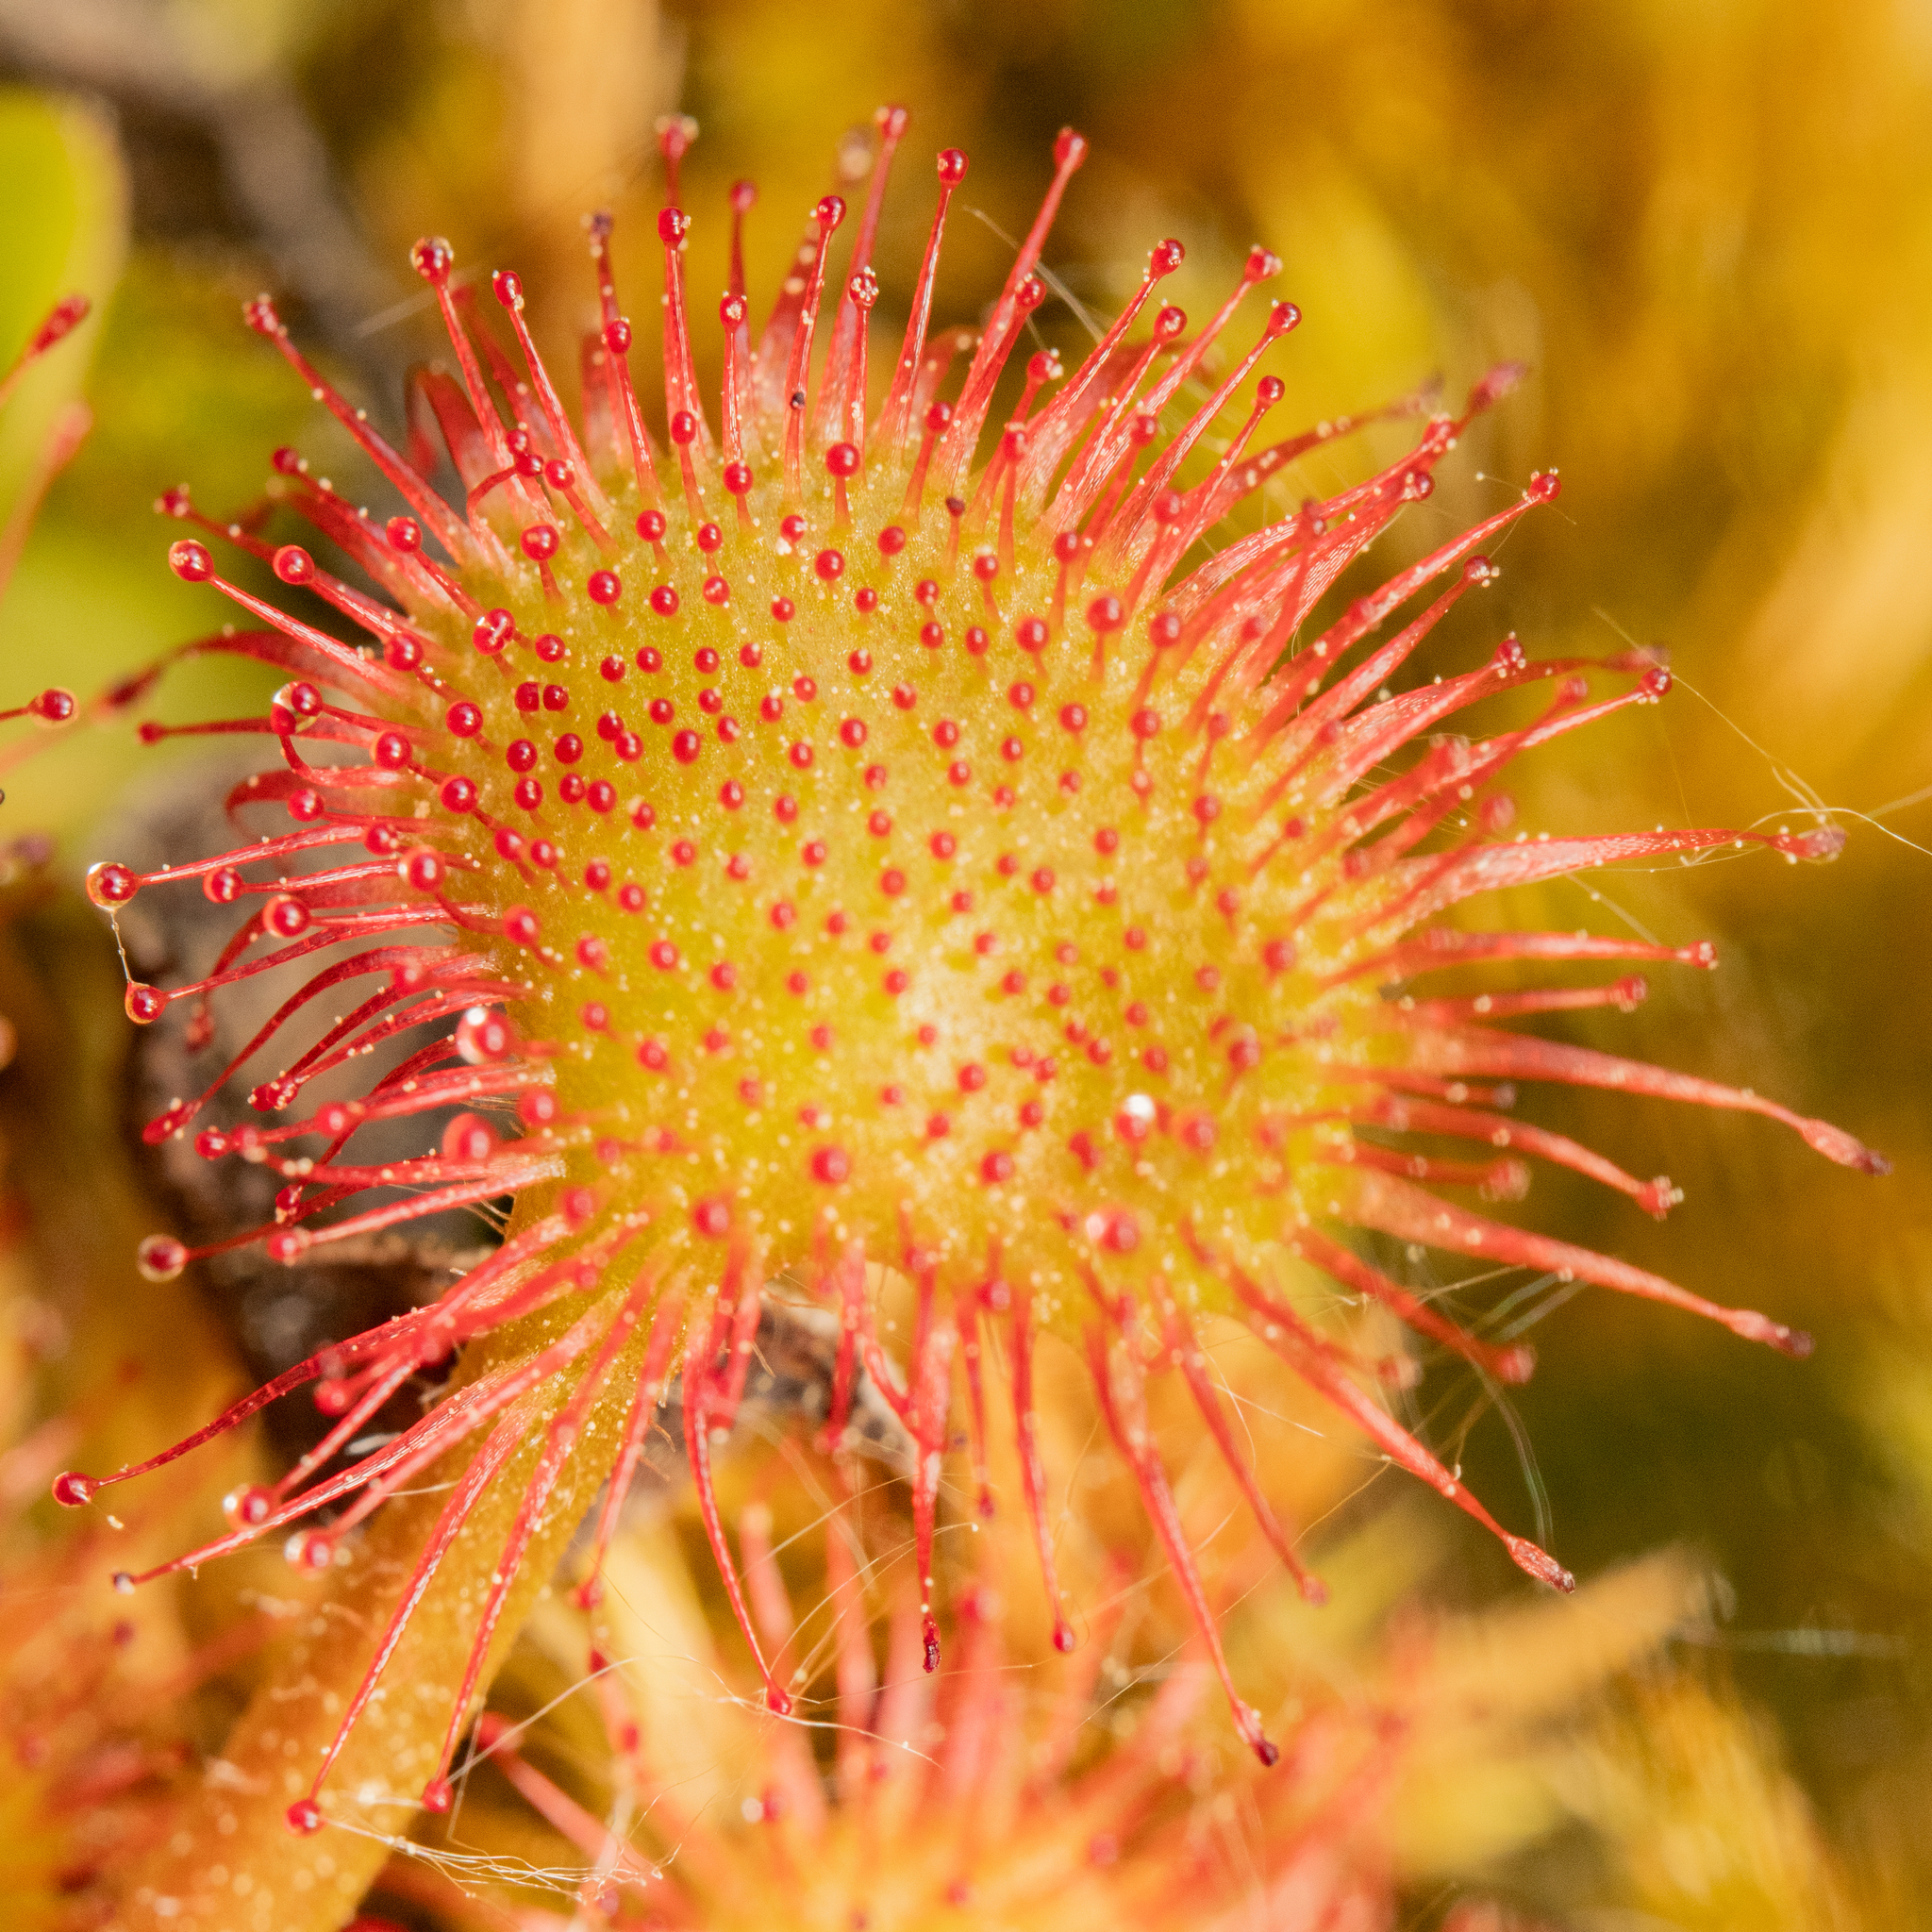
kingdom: Plantae
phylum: Tracheophyta
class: Magnoliopsida
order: Caryophyllales
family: Droseraceae
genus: Drosera
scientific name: Drosera rotundifolia
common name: Round-leaved sundew
